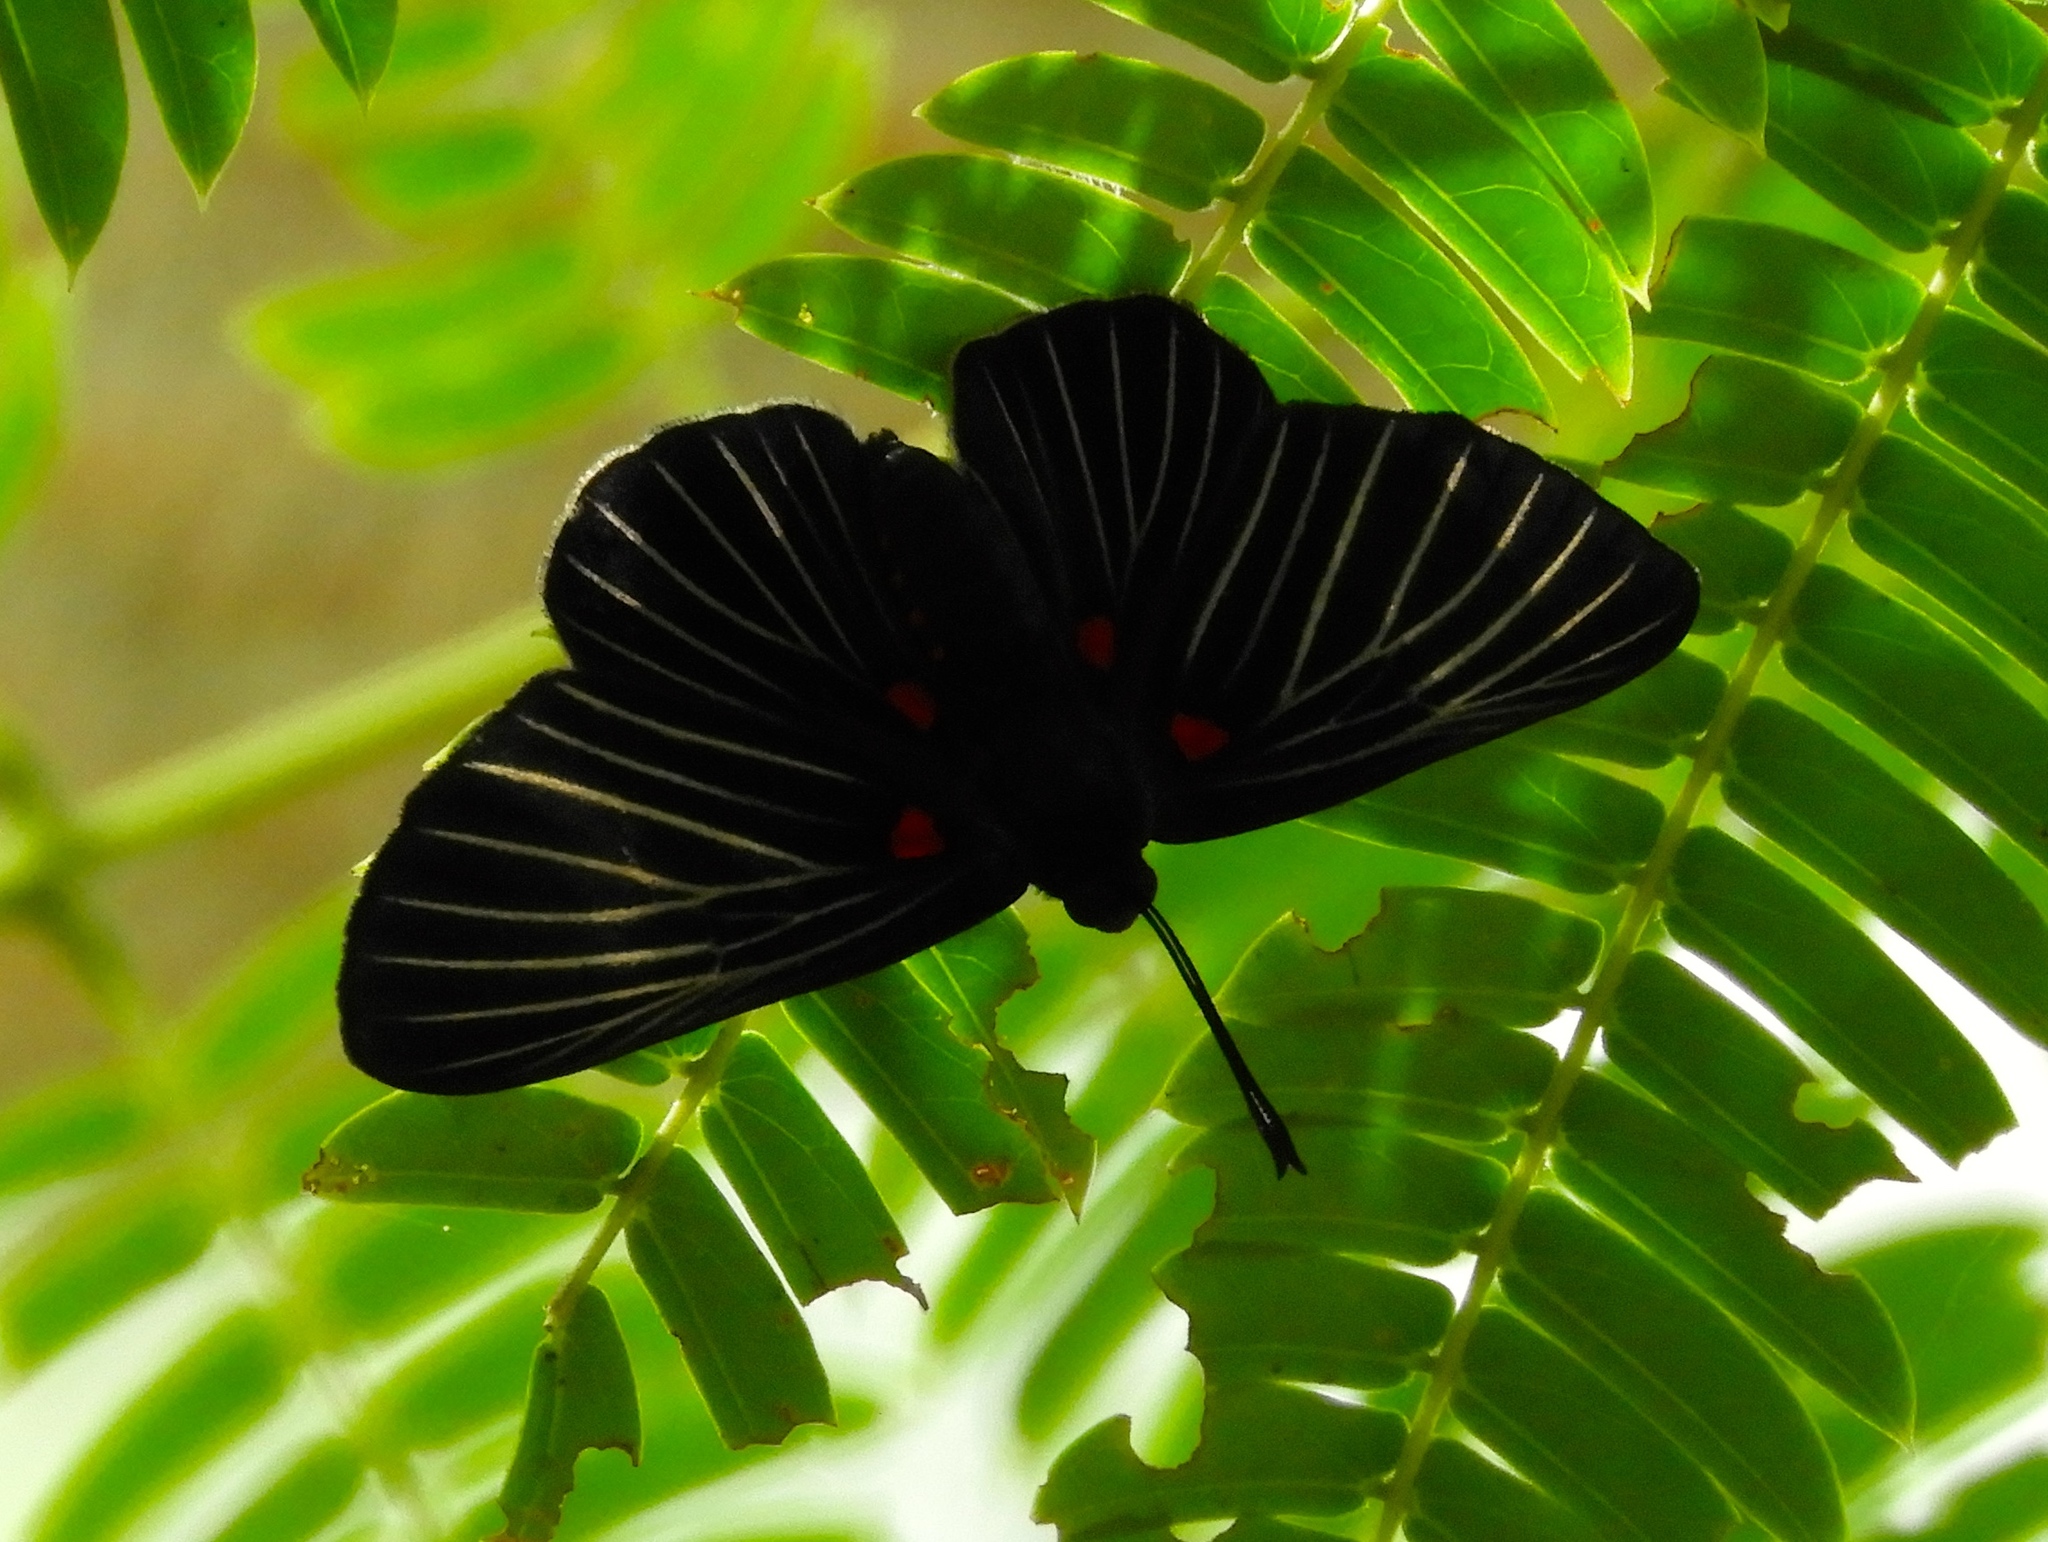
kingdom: Animalia
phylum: Arthropoda
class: Insecta
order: Lepidoptera
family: Lycaenidae
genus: Melanis
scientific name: Melanis
